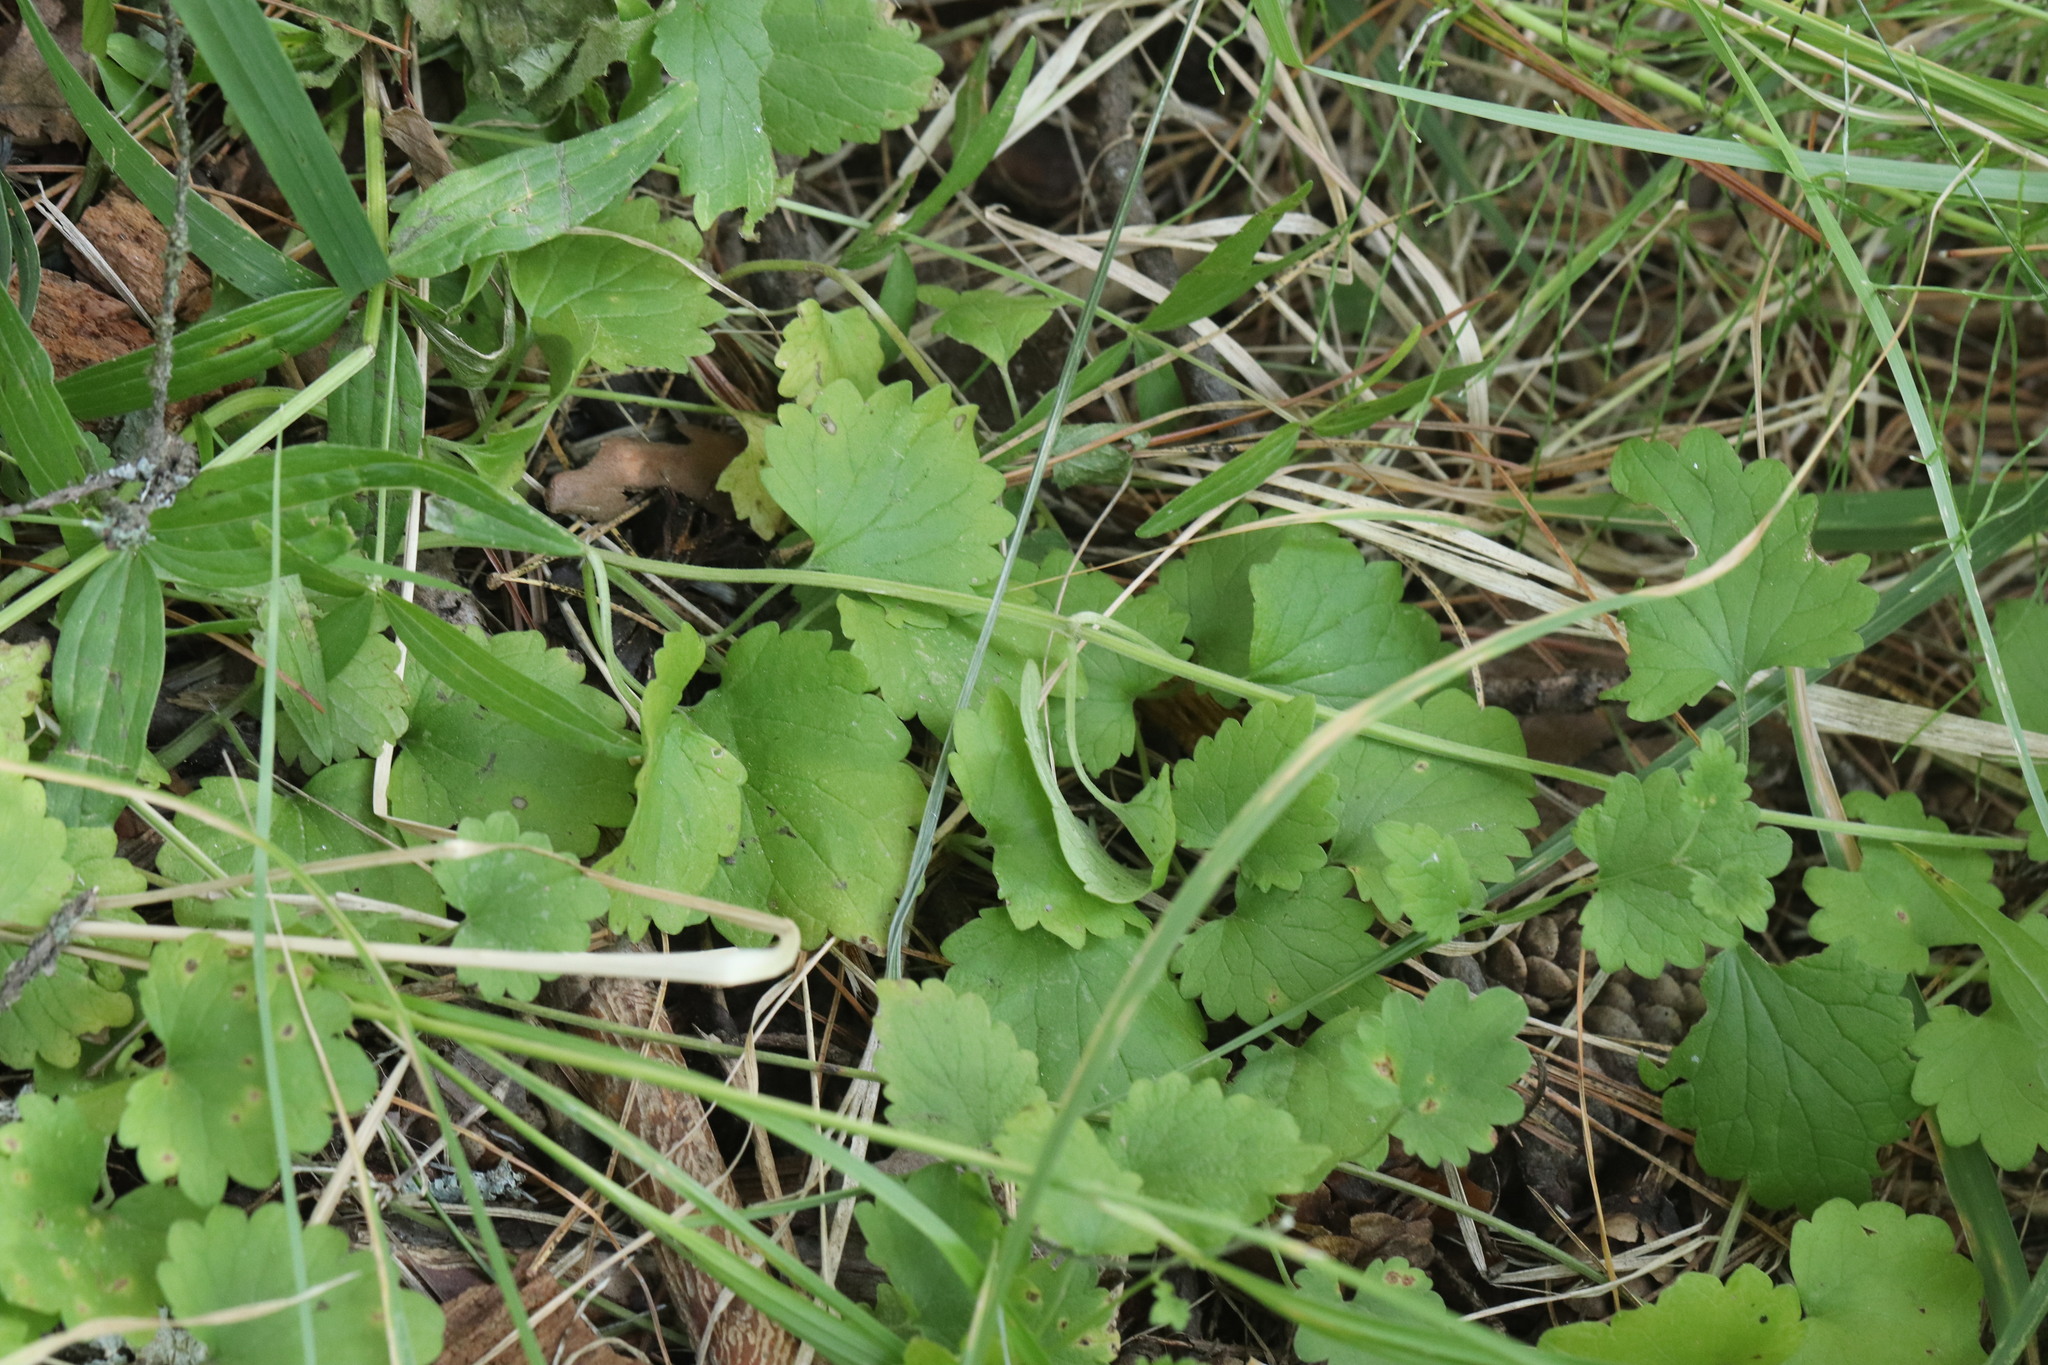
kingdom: Plantae
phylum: Tracheophyta
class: Magnoliopsida
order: Lamiales
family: Lamiaceae
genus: Glechoma
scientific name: Glechoma hederacea
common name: Ground ivy
